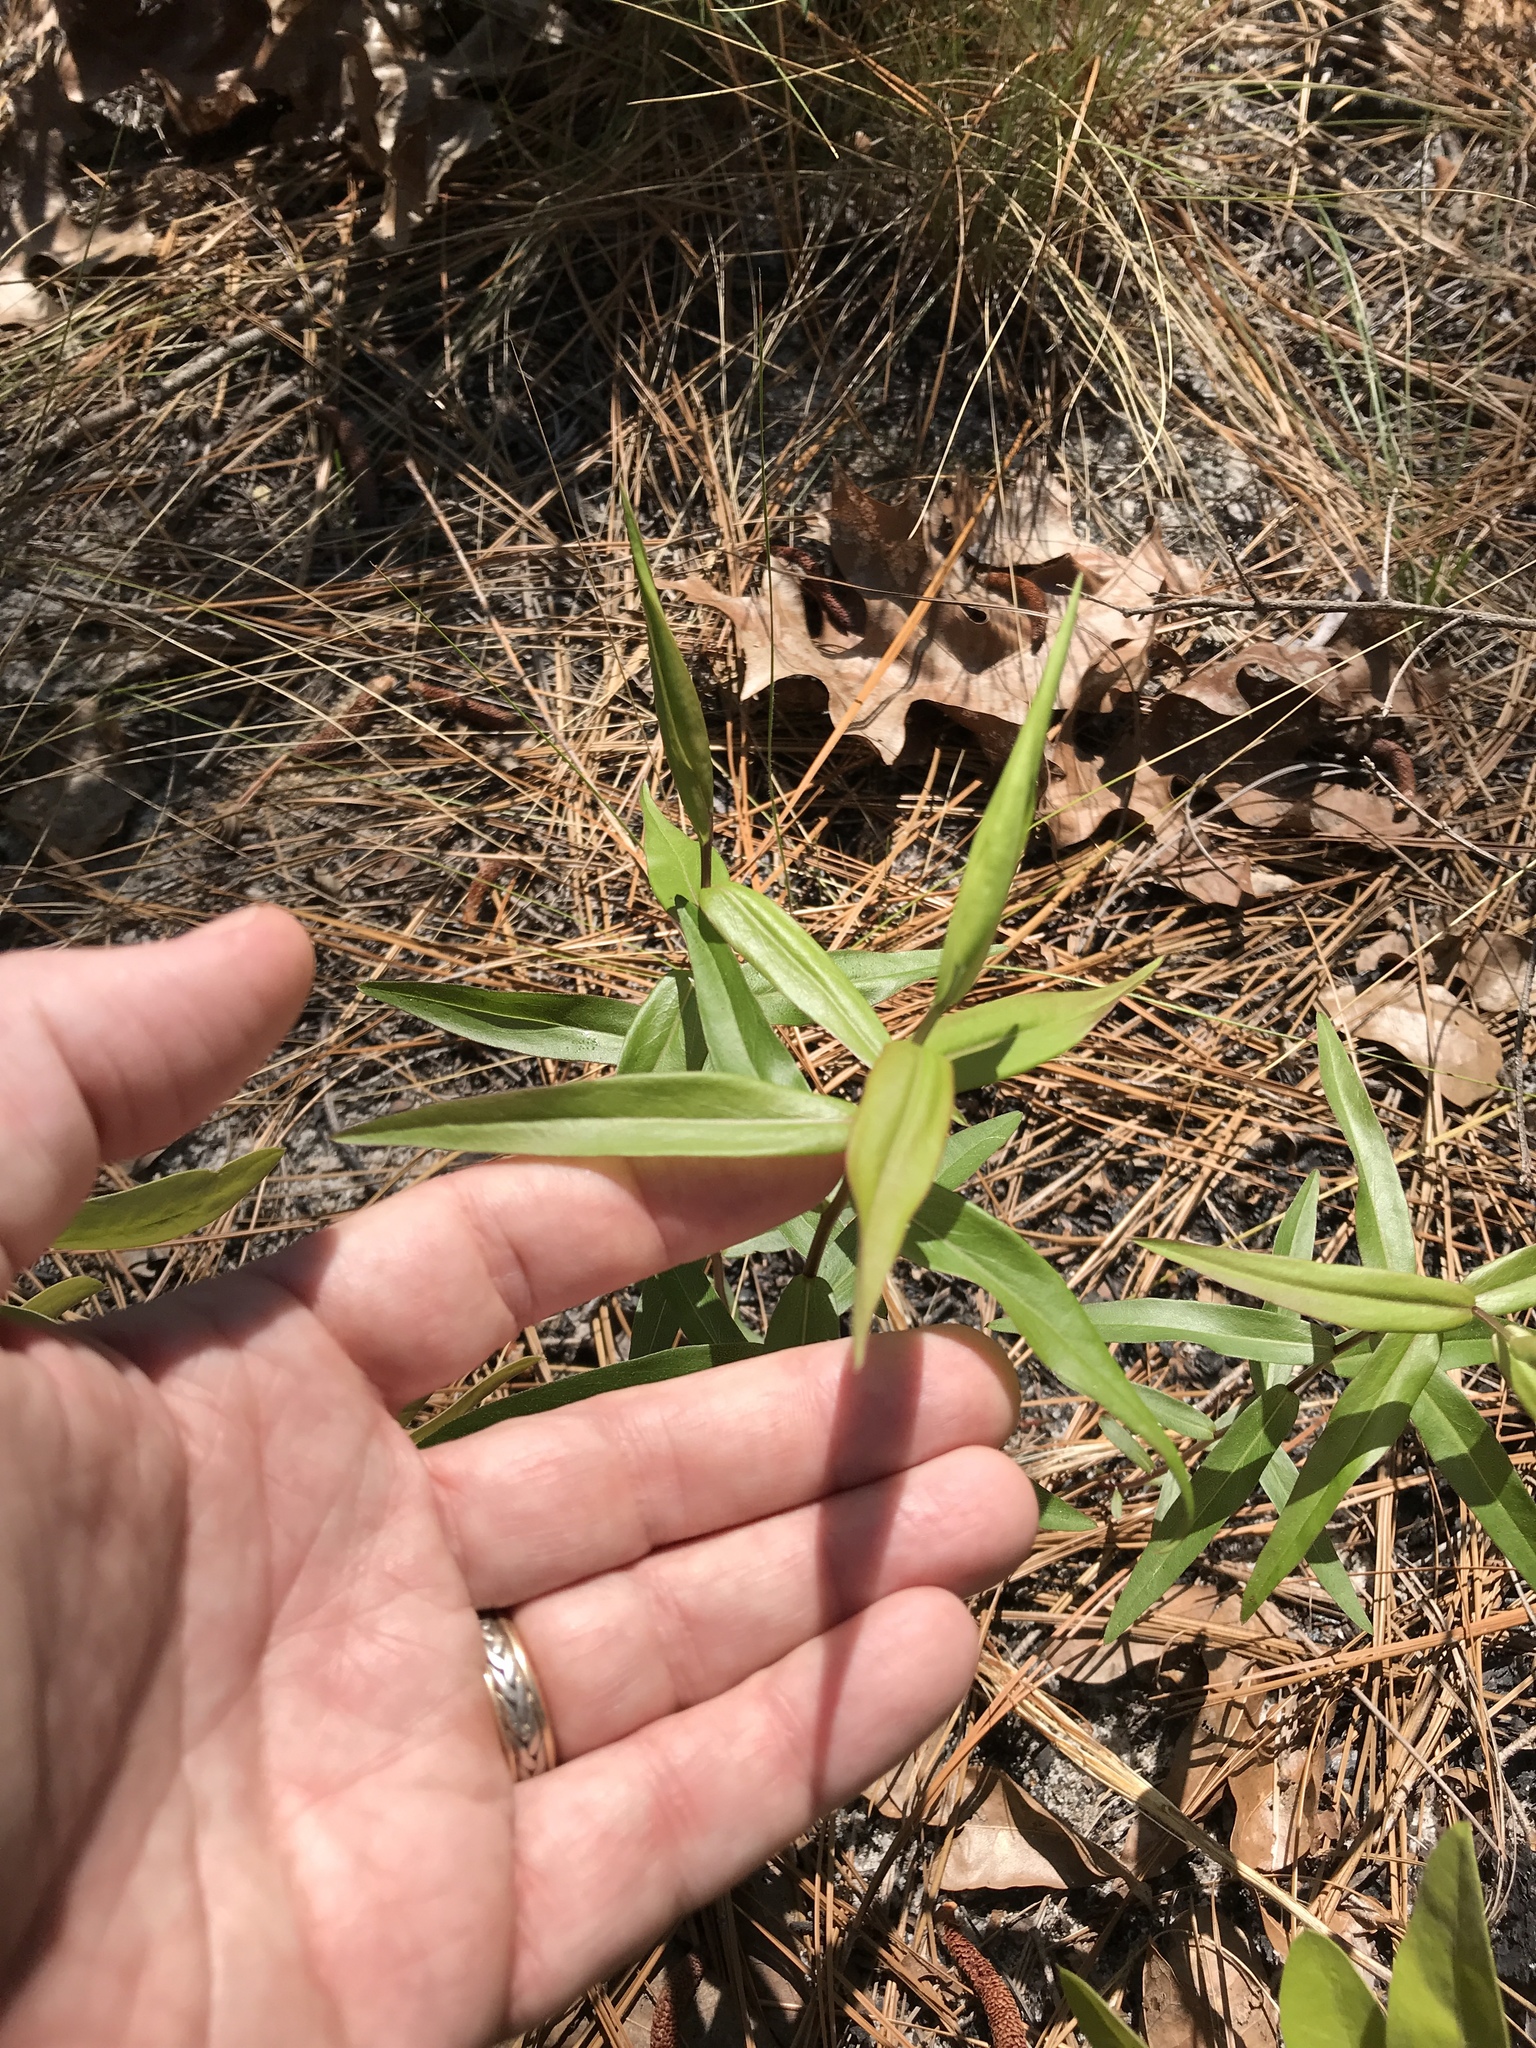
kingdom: Plantae
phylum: Tracheophyta
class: Magnoliopsida
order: Asterales
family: Asteraceae
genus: Solidago
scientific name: Solidago odora
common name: Anise-scented goldenrod
